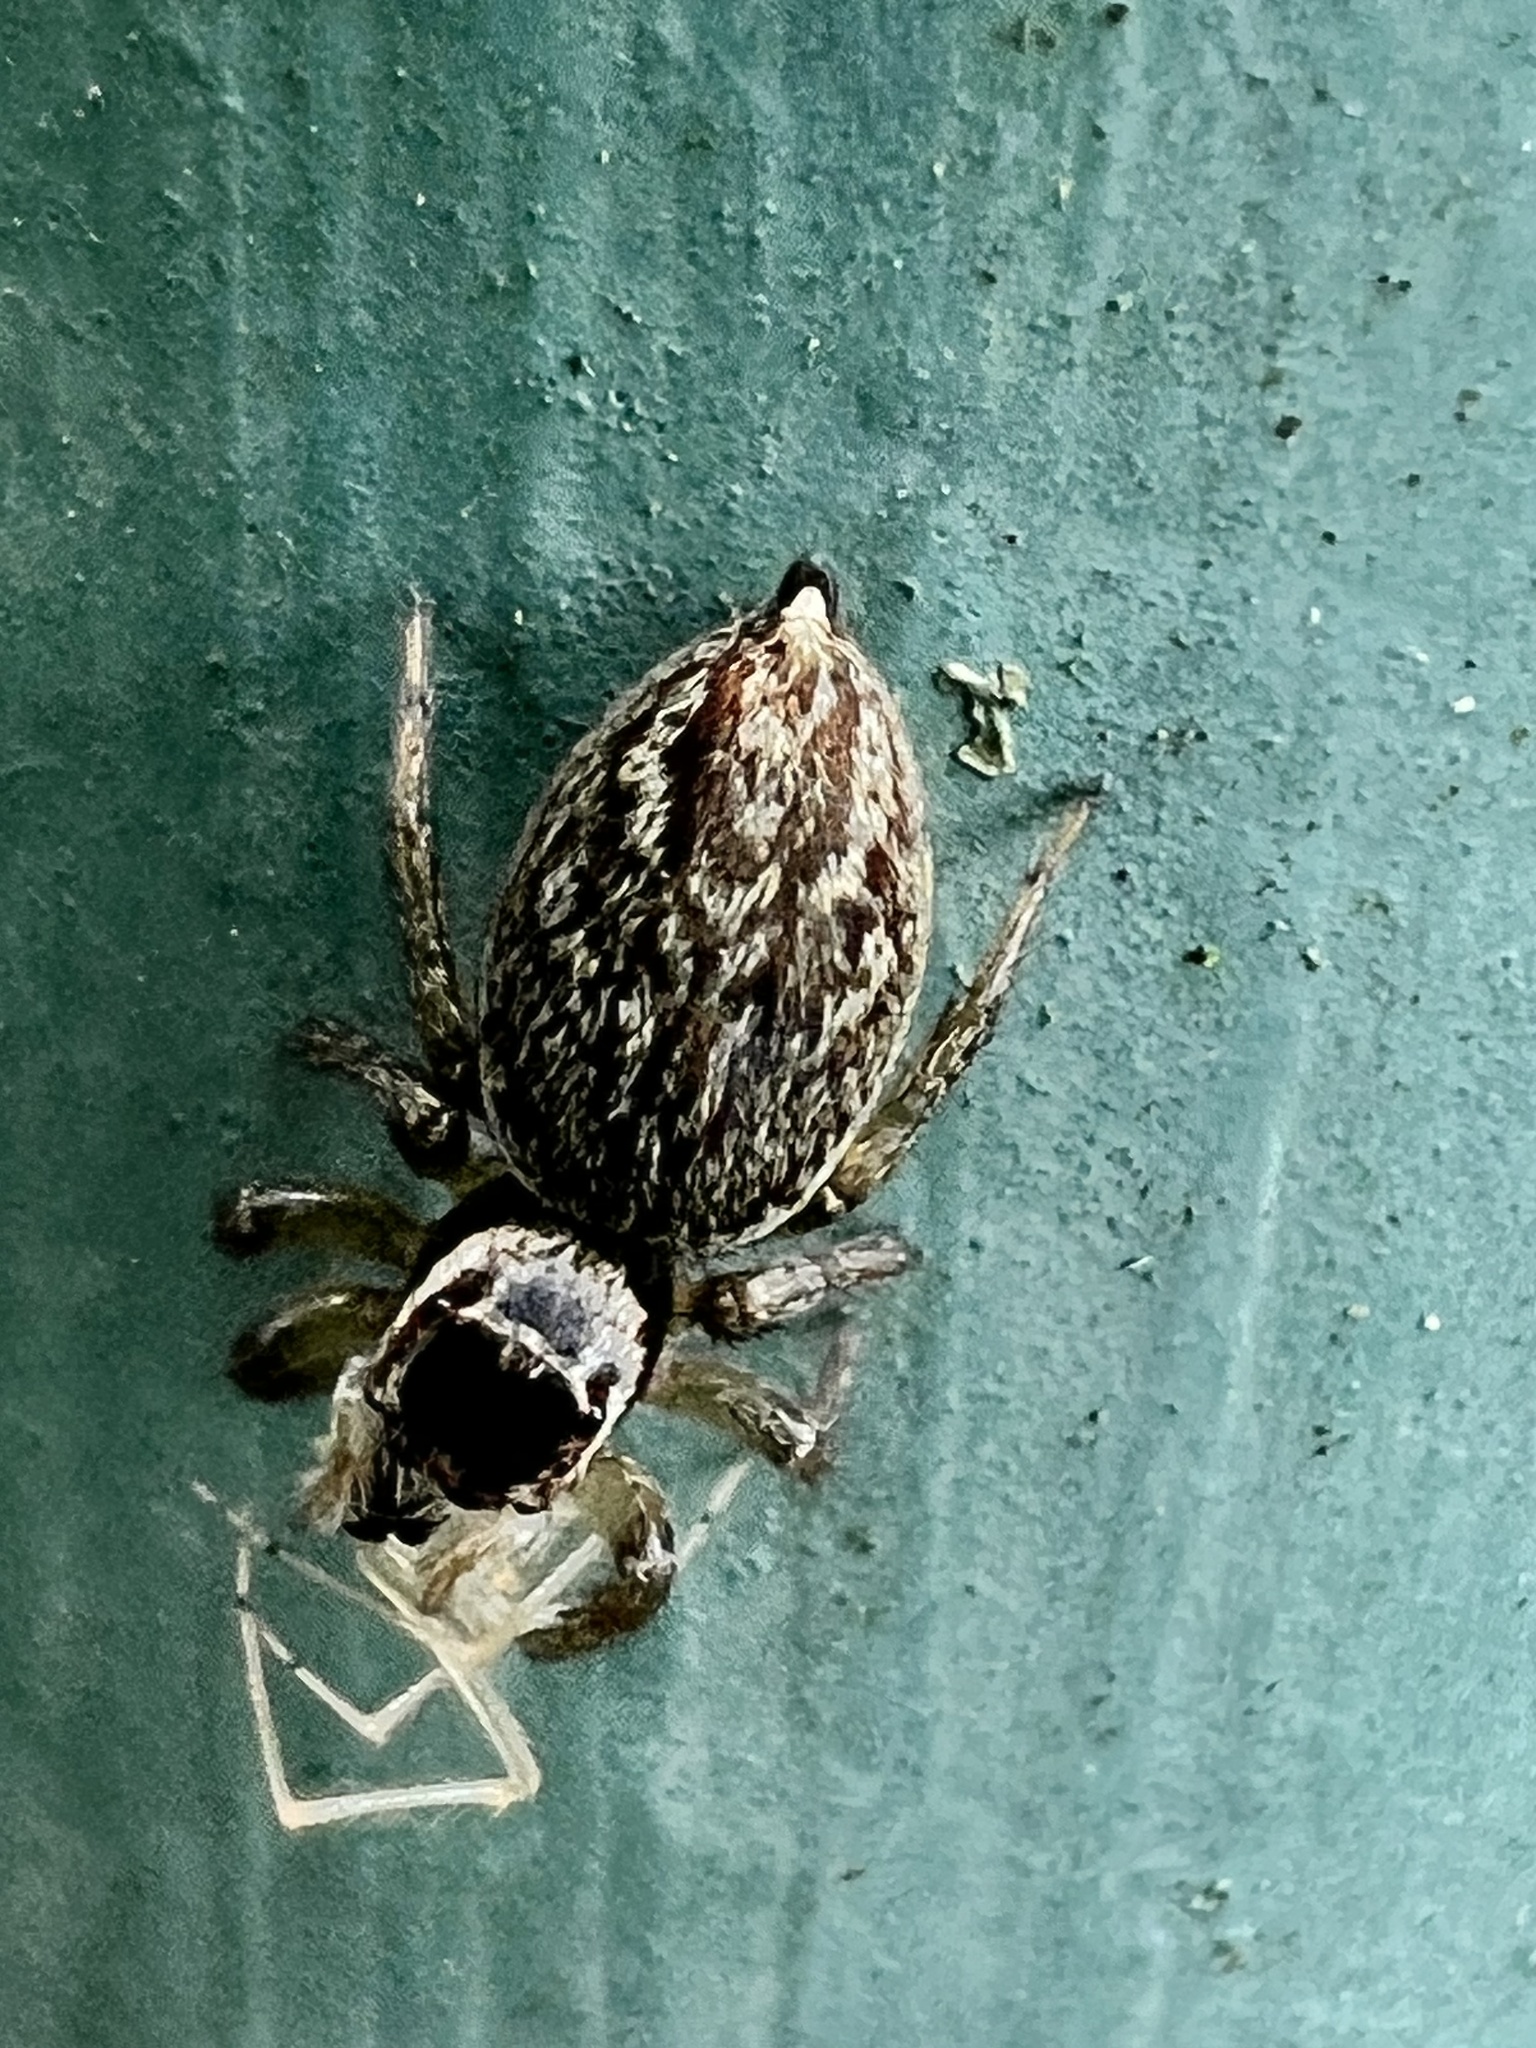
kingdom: Animalia
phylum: Arthropoda
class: Arachnida
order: Araneae
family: Salticidae
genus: Maratus
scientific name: Maratus griseus
